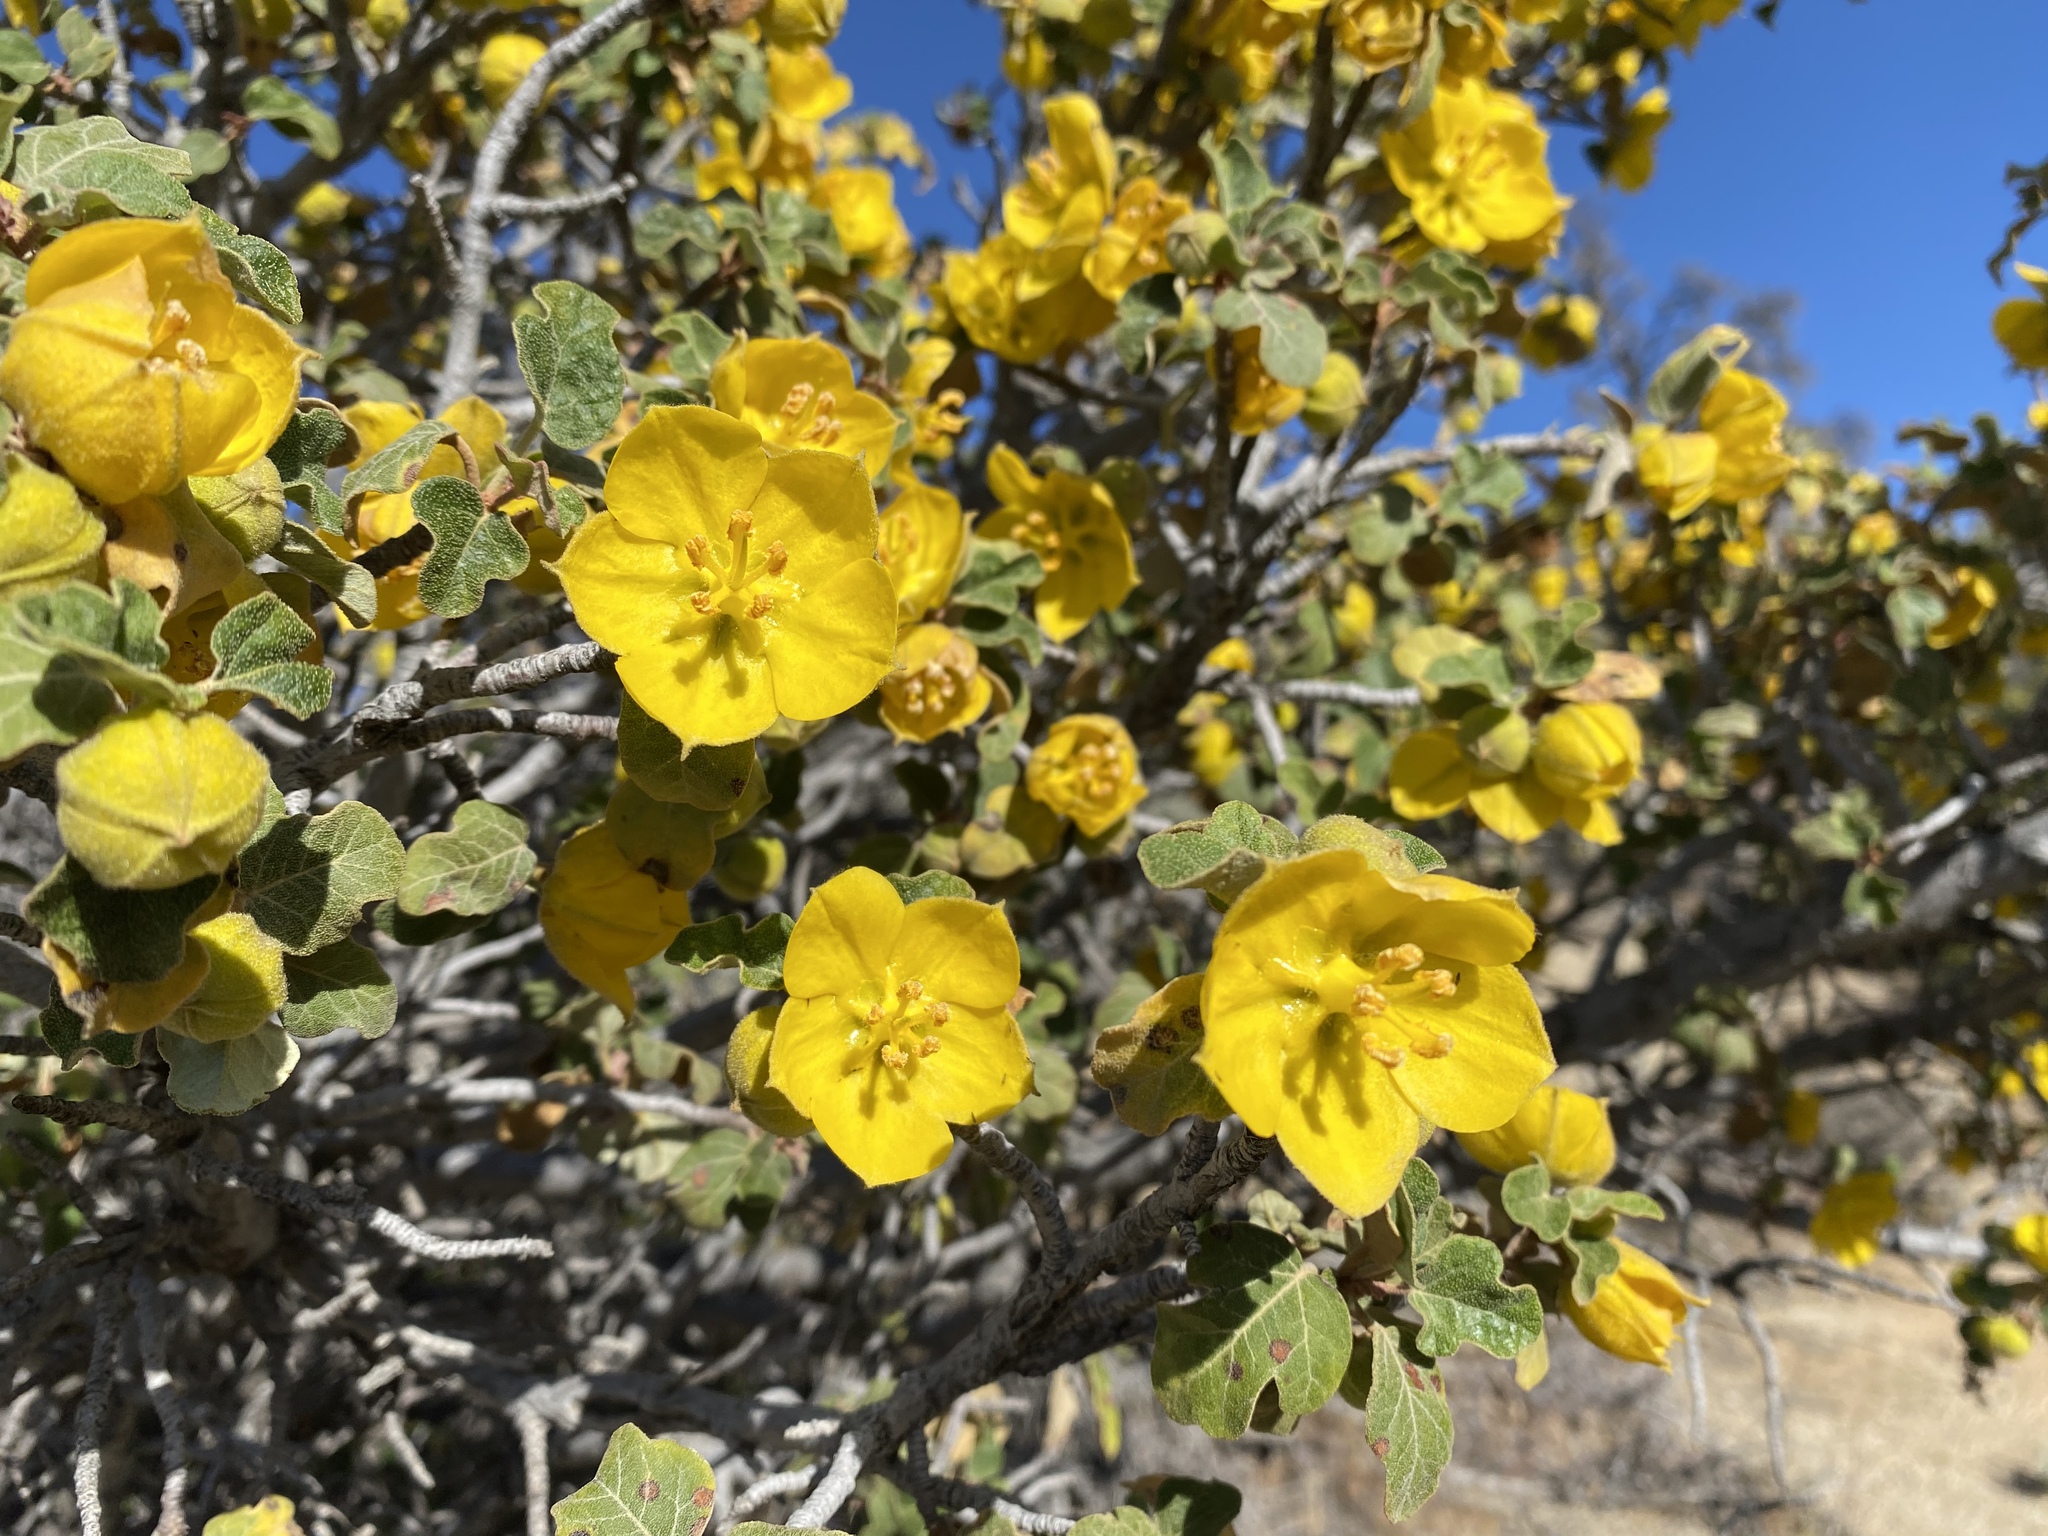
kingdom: Plantae
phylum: Tracheophyta
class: Magnoliopsida
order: Malvales
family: Malvaceae
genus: Fremontodendron
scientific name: Fremontodendron californicum
